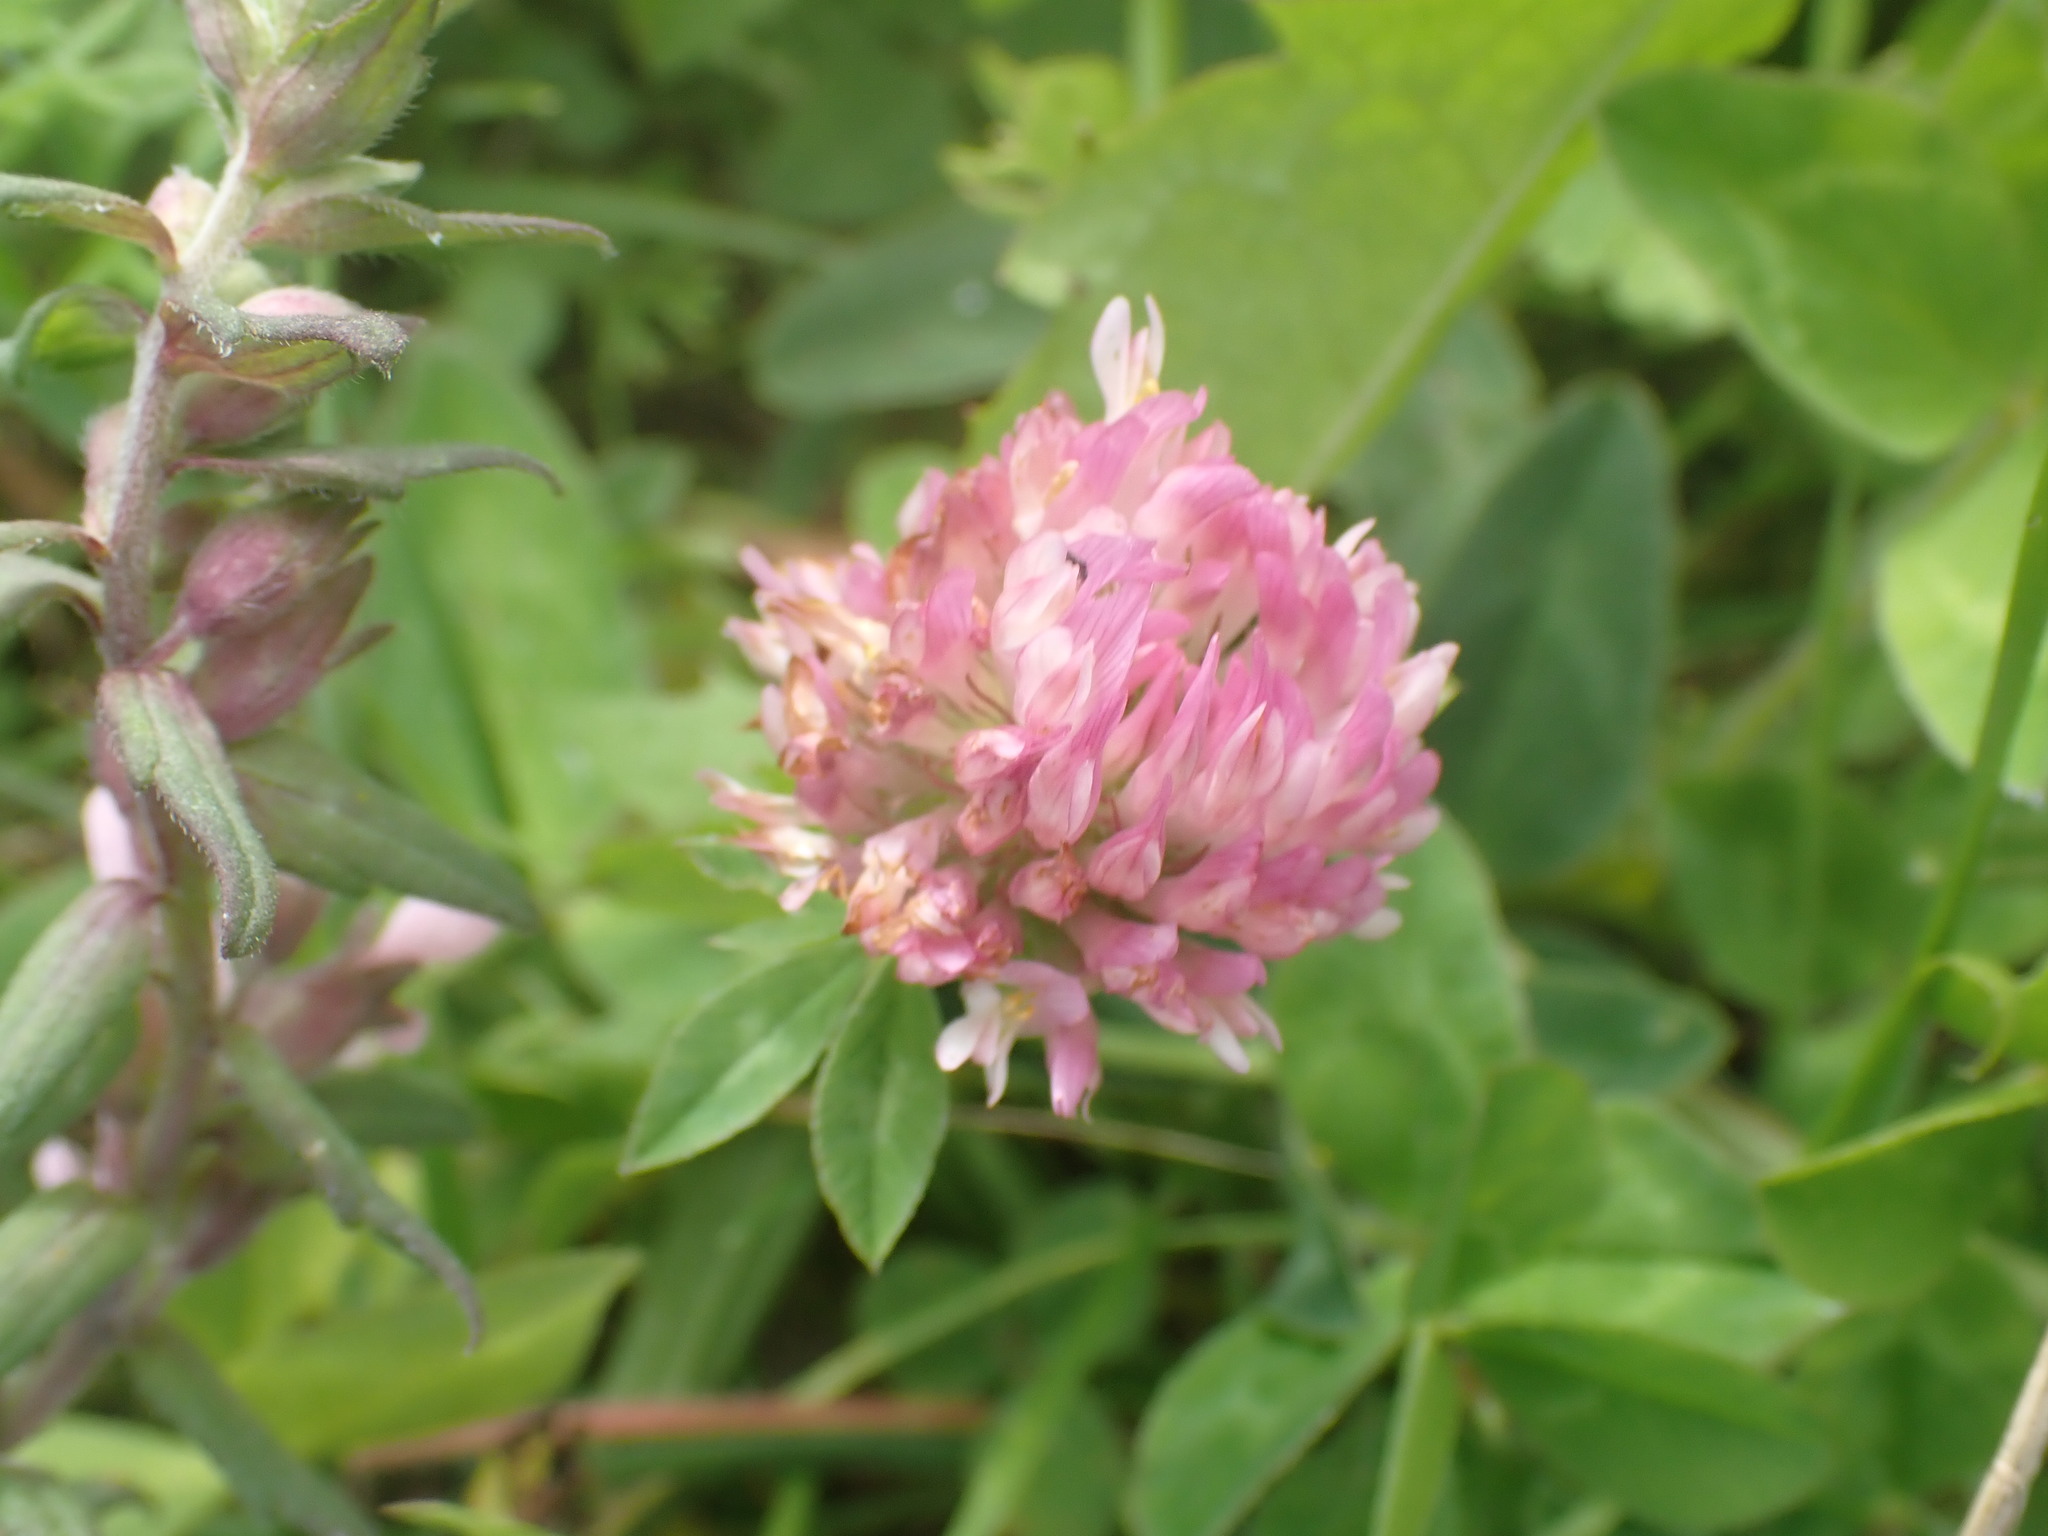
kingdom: Plantae
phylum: Tracheophyta
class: Magnoliopsida
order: Fabales
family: Fabaceae
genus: Trifolium
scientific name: Trifolium pratense
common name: Red clover
